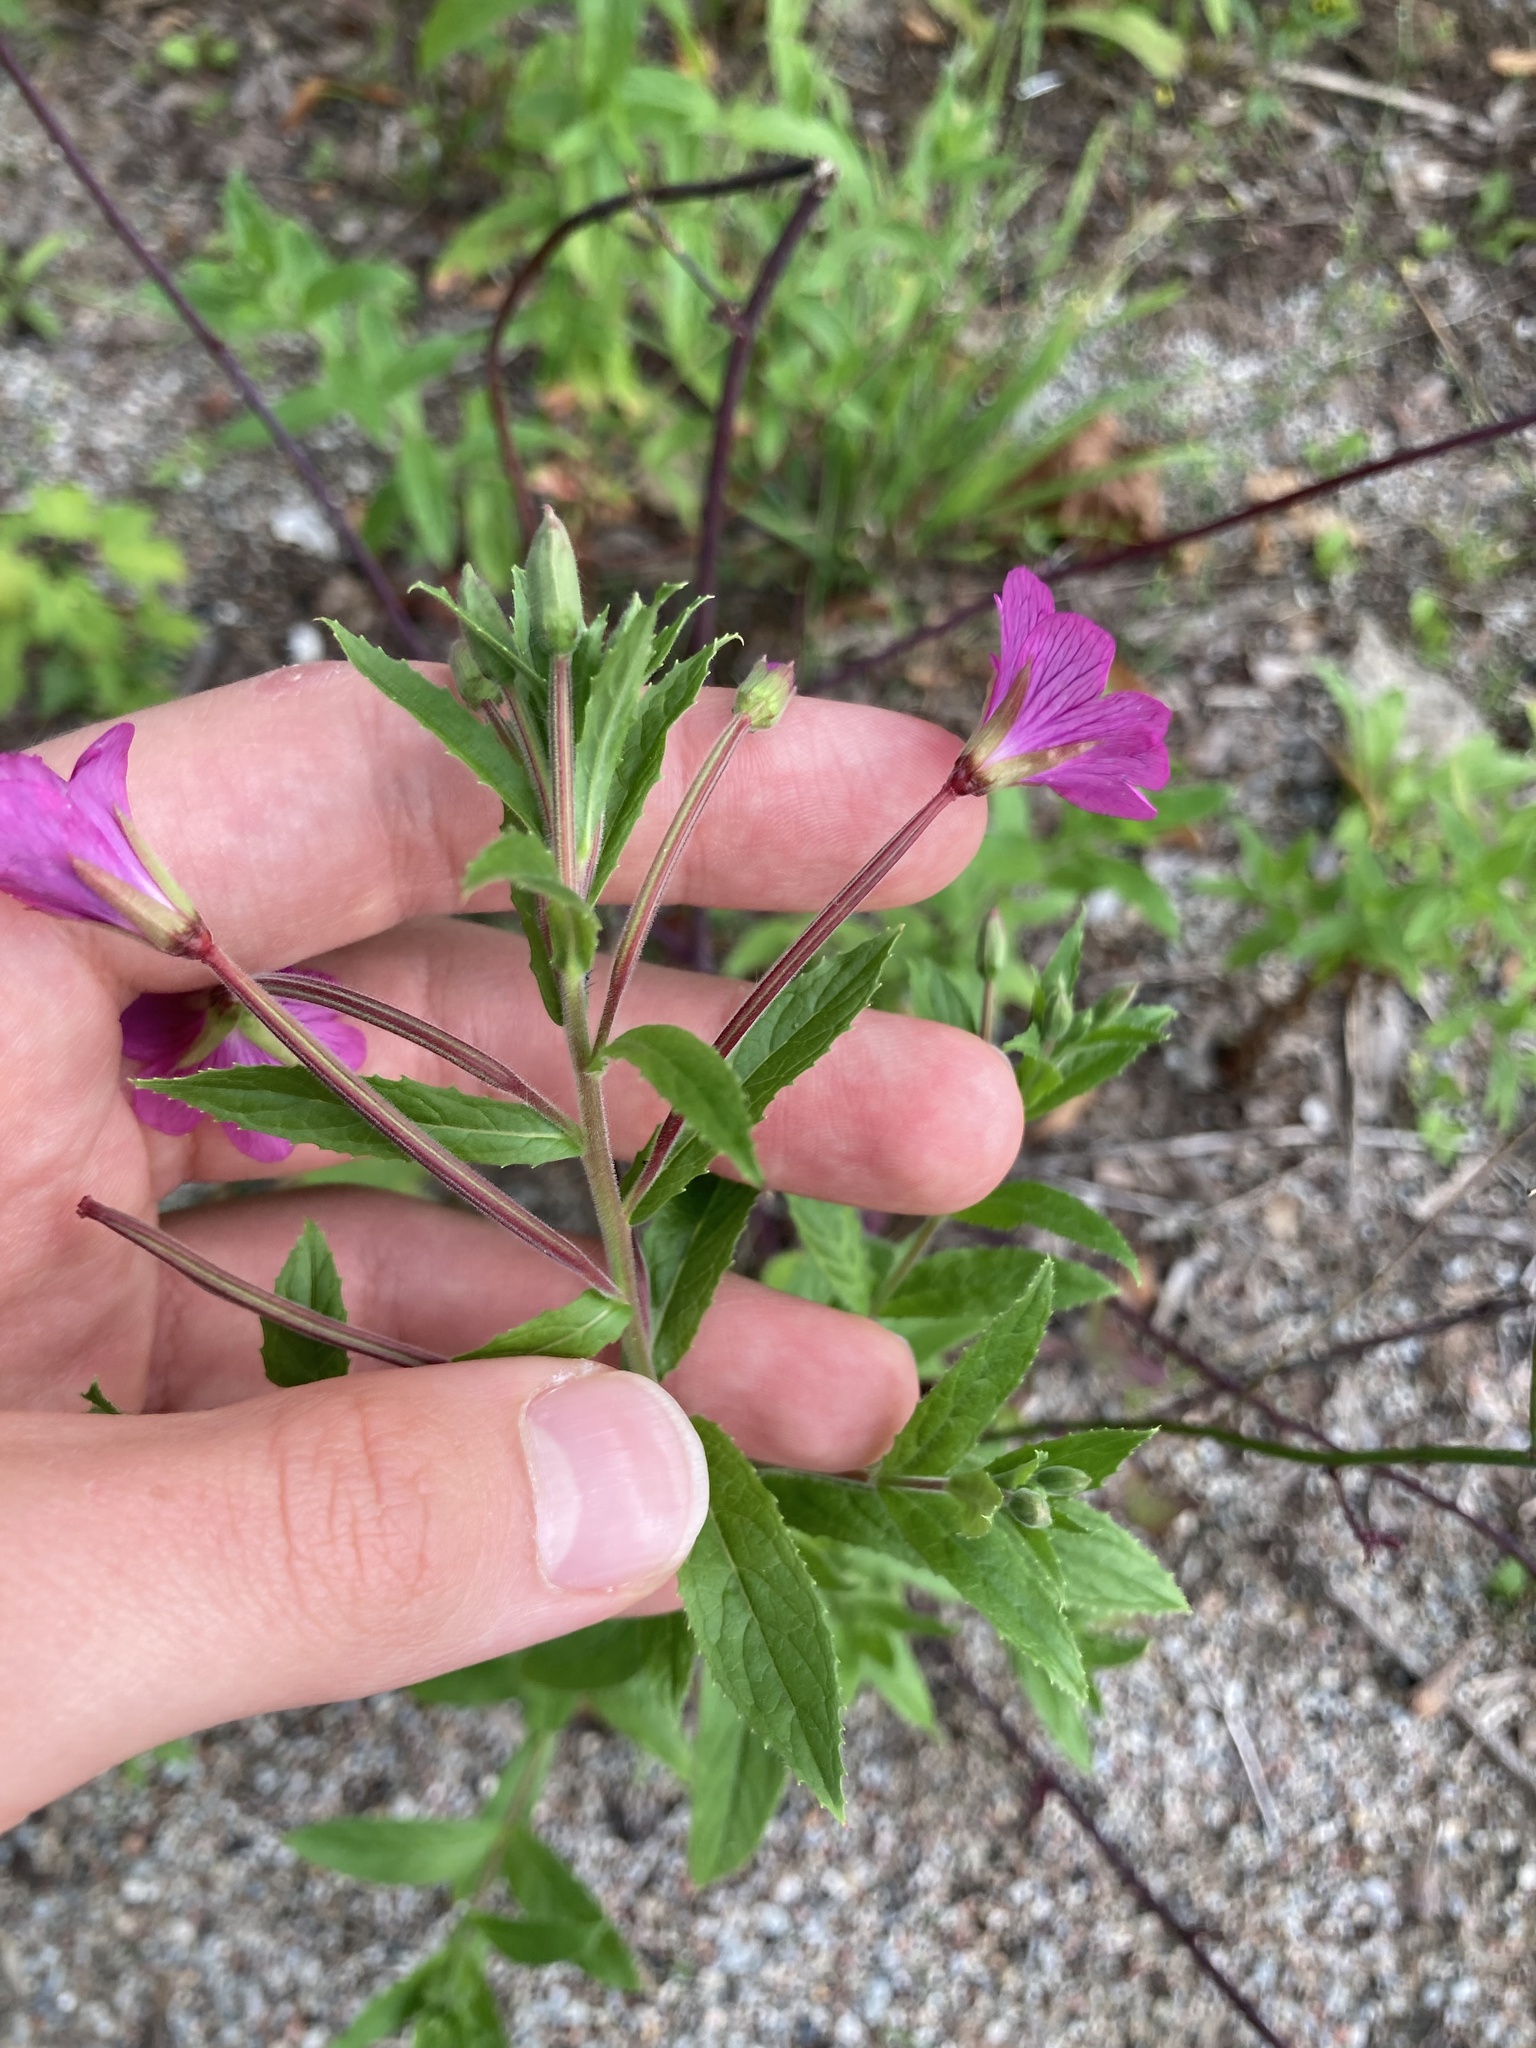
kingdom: Plantae
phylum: Tracheophyta
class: Magnoliopsida
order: Myrtales
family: Onagraceae
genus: Epilobium
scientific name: Epilobium hirsutum
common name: Great willowherb
